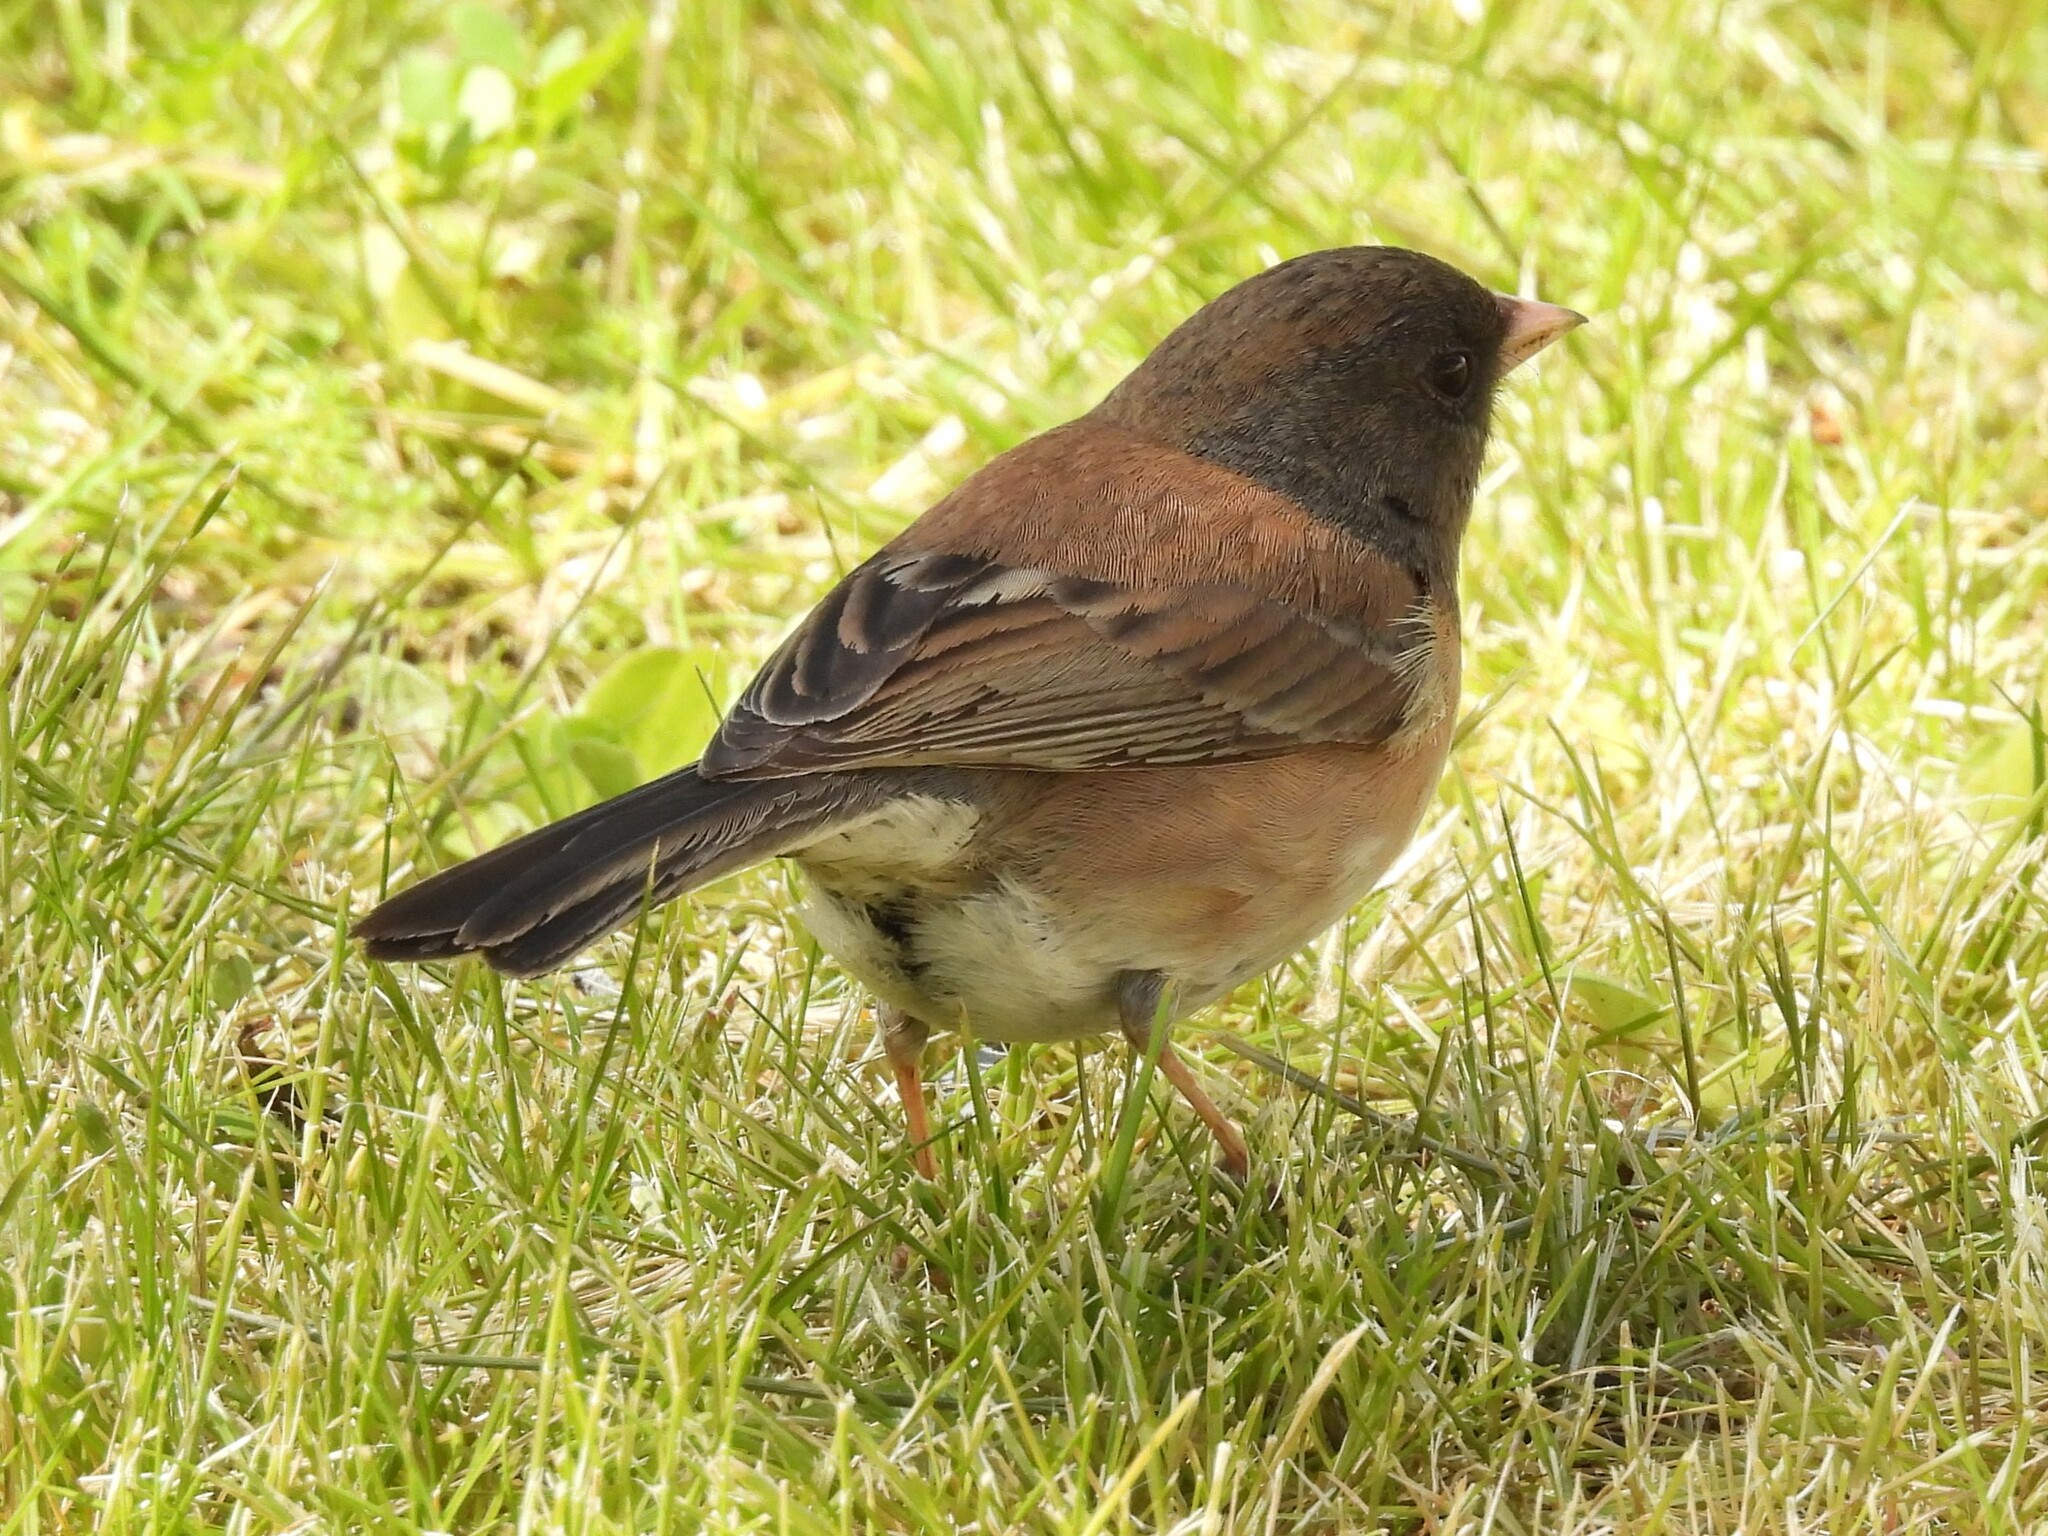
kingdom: Animalia
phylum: Chordata
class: Aves
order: Passeriformes
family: Passerellidae
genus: Junco
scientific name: Junco hyemalis
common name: Dark-eyed junco
